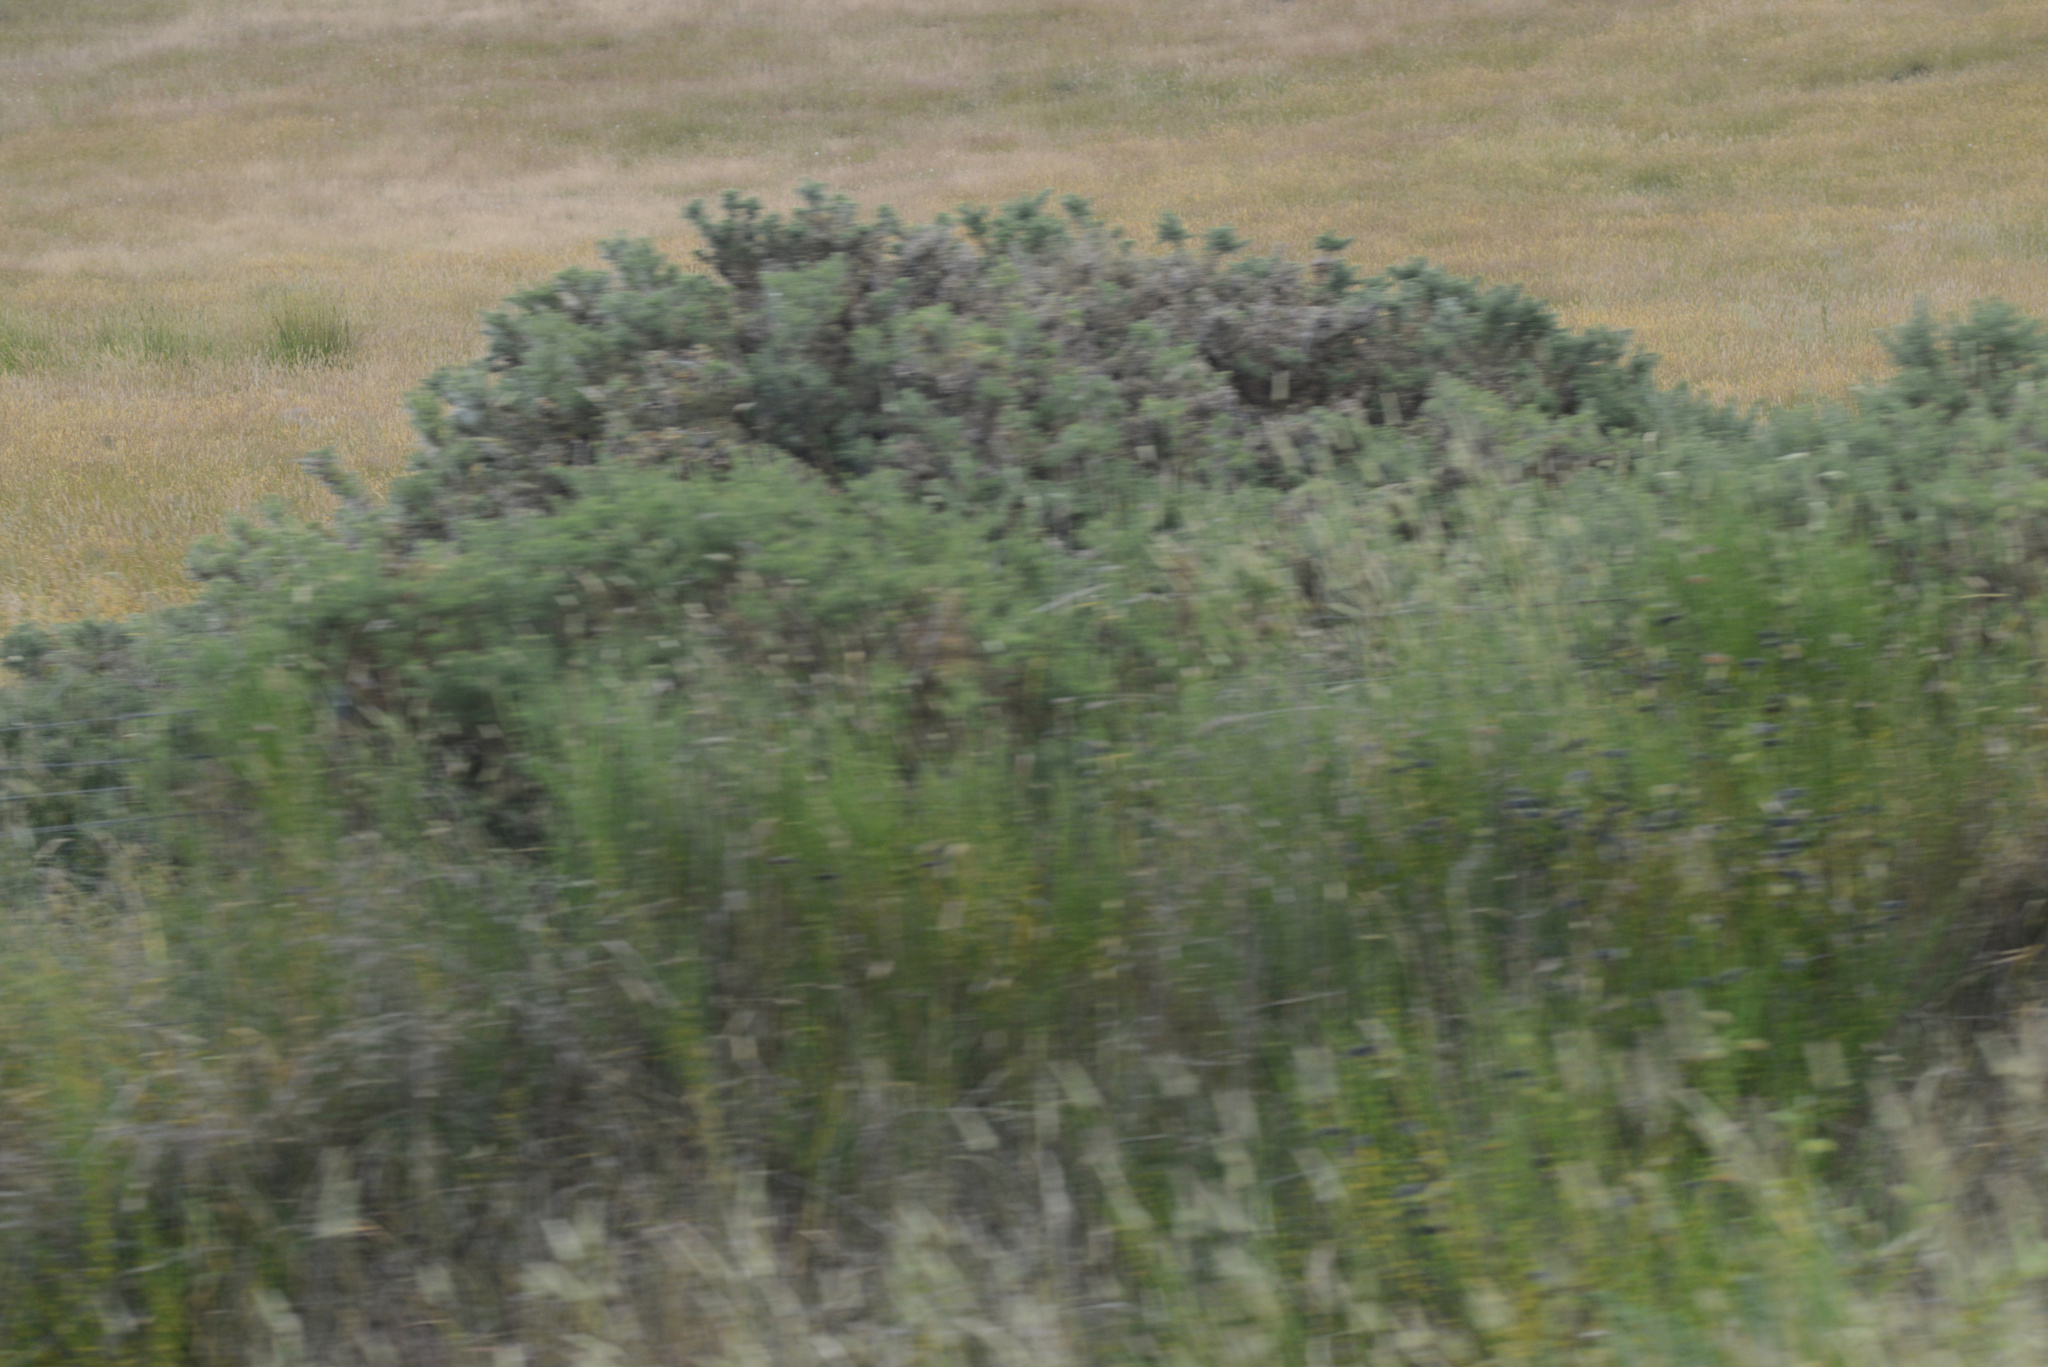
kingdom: Plantae
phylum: Tracheophyta
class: Magnoliopsida
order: Fabales
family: Fabaceae
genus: Ulex
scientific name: Ulex europaeus
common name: Common gorse
